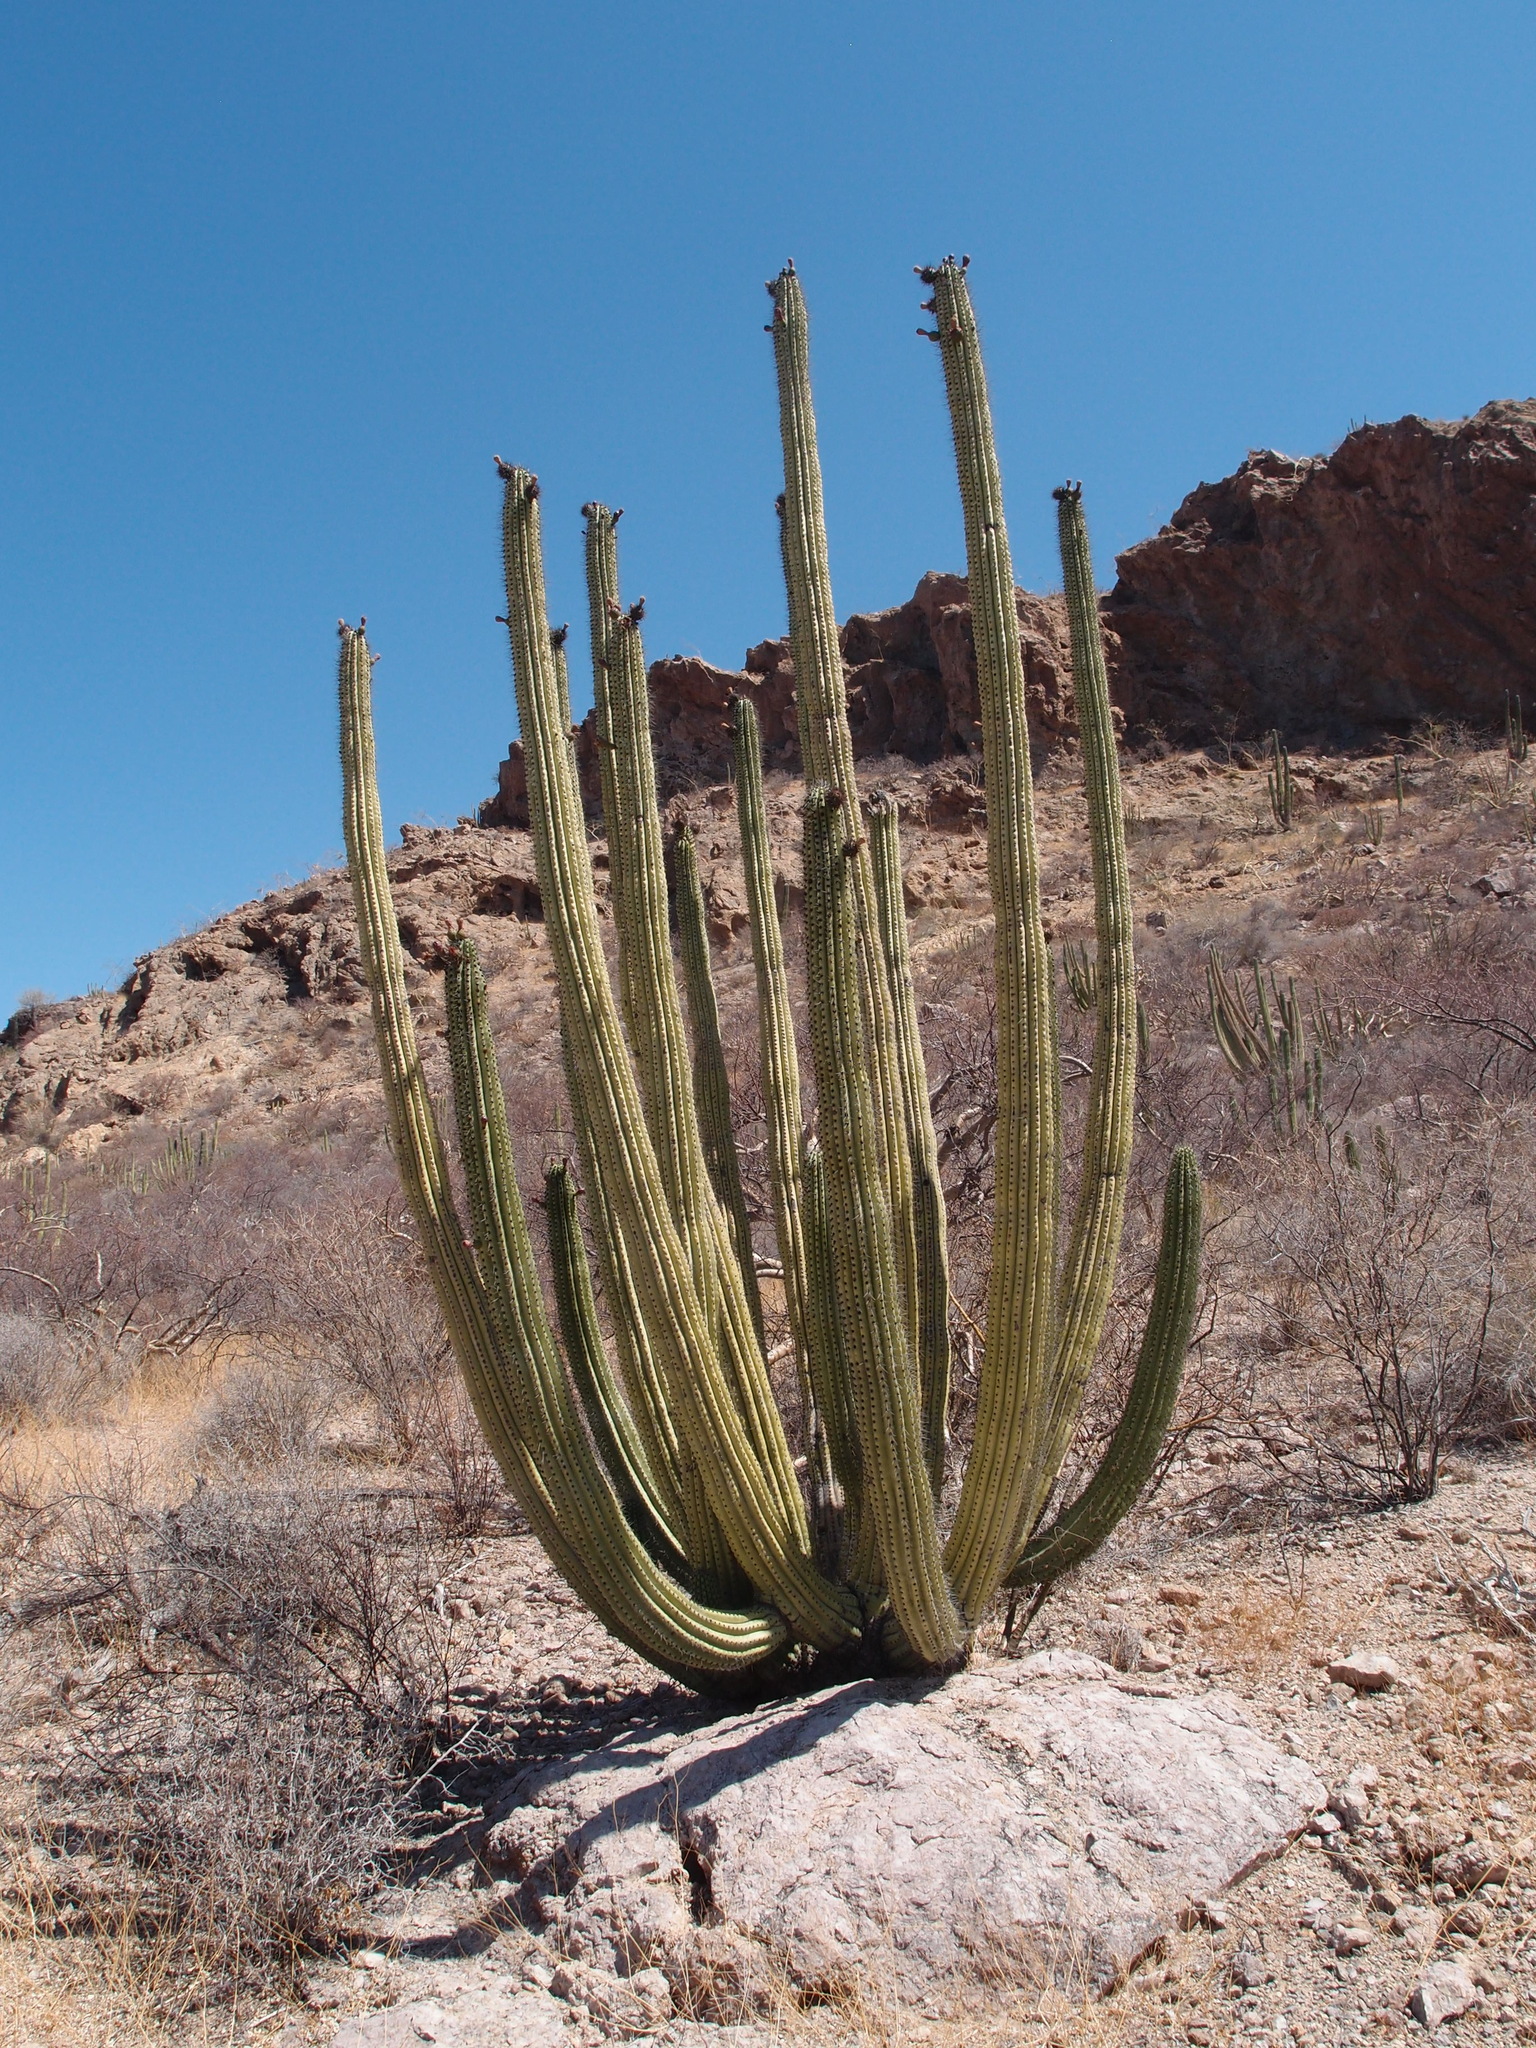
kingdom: Plantae
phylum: Tracheophyta
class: Magnoliopsida
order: Caryophyllales
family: Cactaceae
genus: Stenocereus
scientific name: Stenocereus thurberi
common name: Organ pipe cactus
